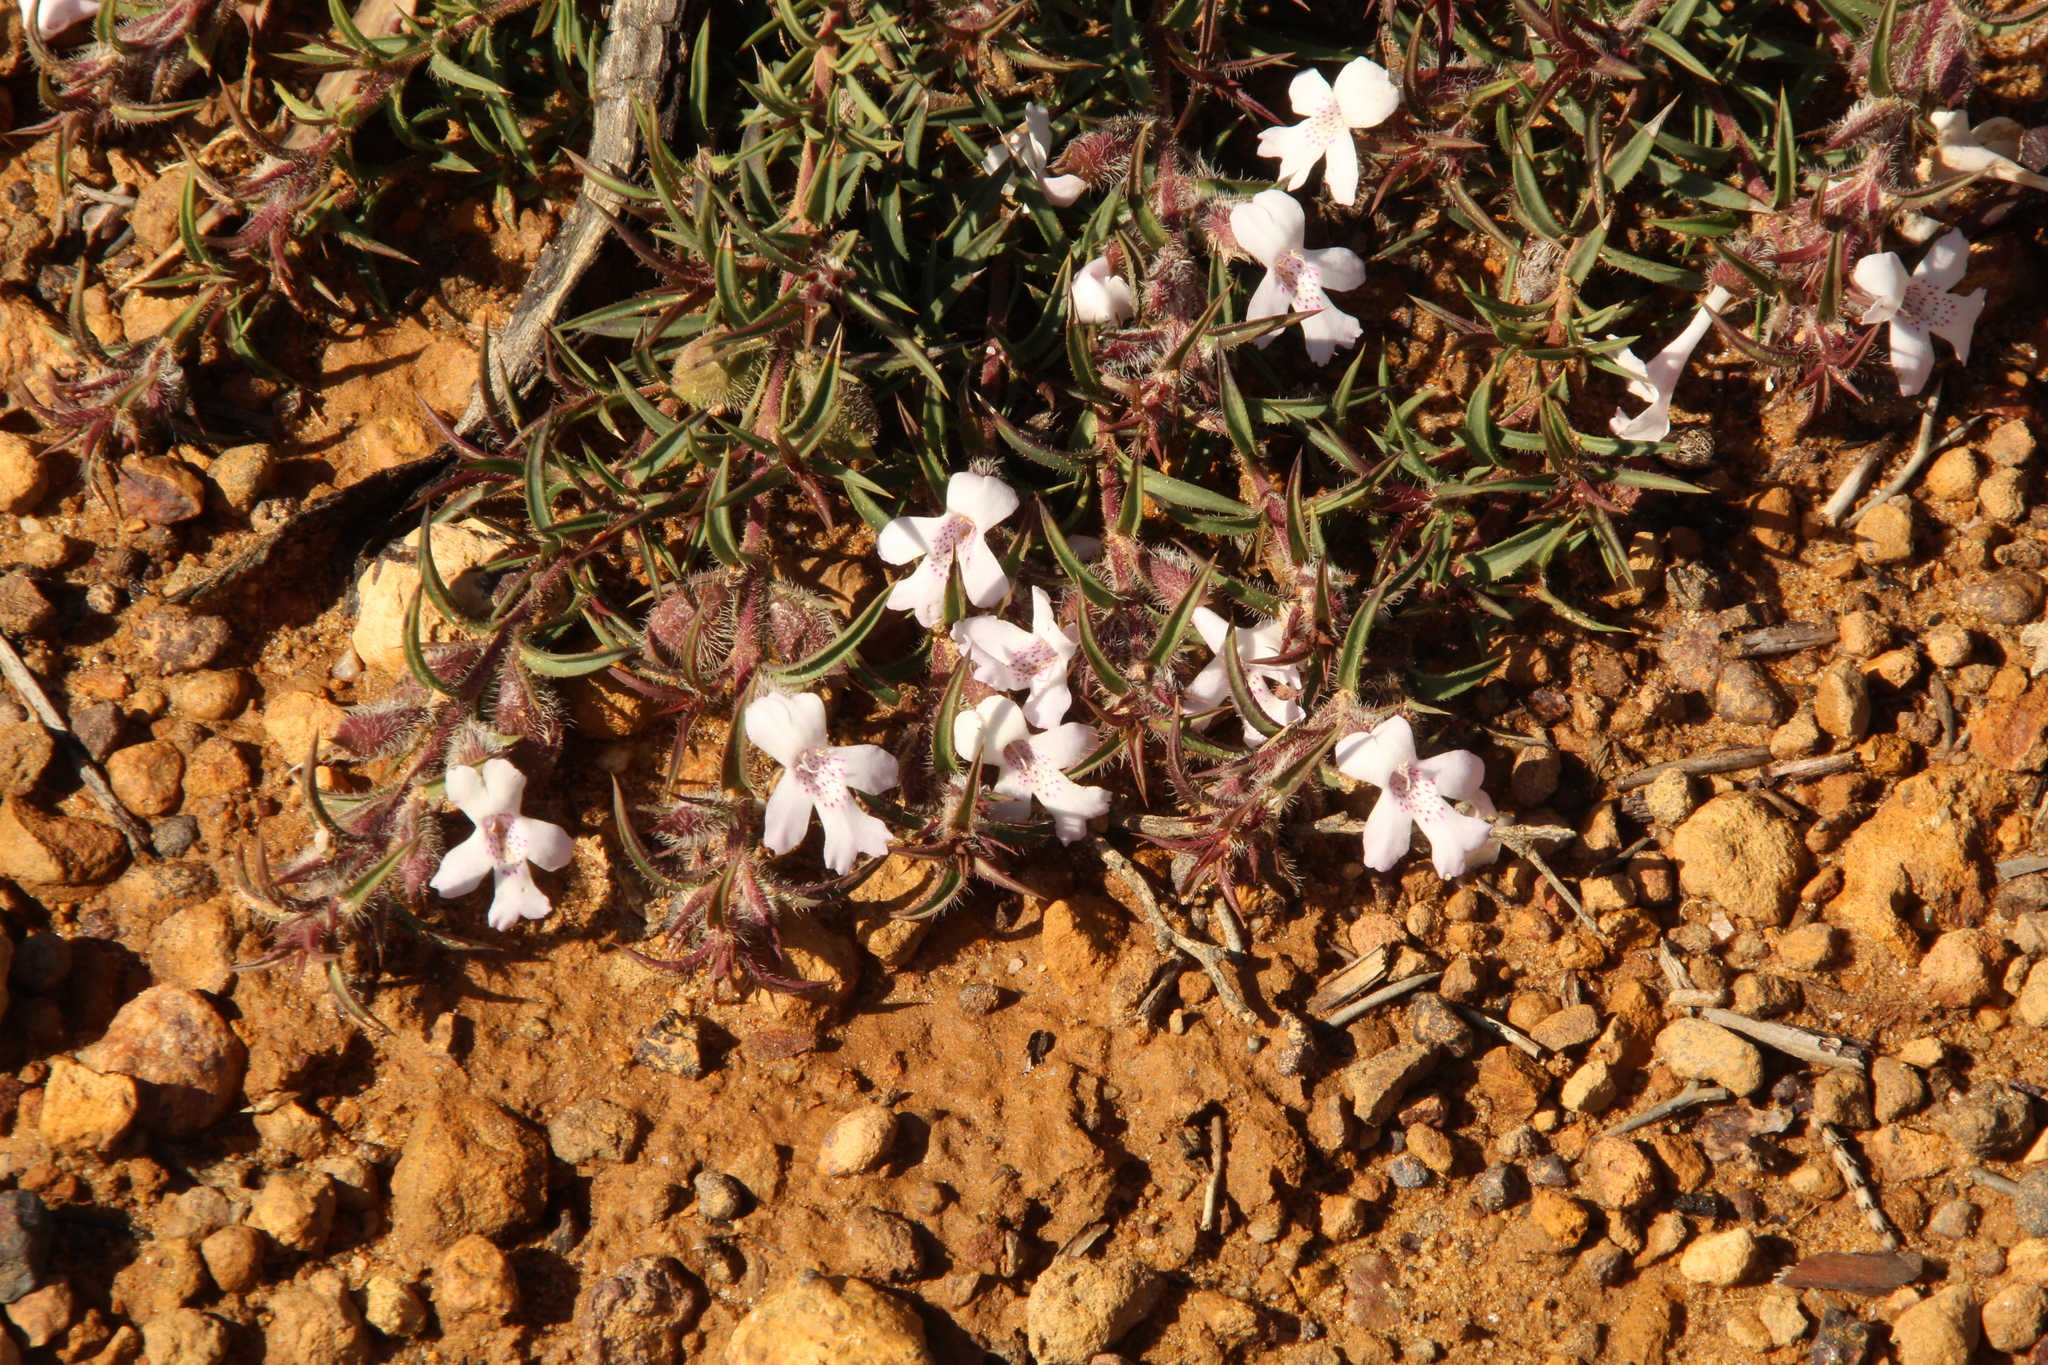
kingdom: Plantae
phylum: Tracheophyta
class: Magnoliopsida
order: Lamiales
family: Lamiaceae
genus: Hemiandra
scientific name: Hemiandra pungens
